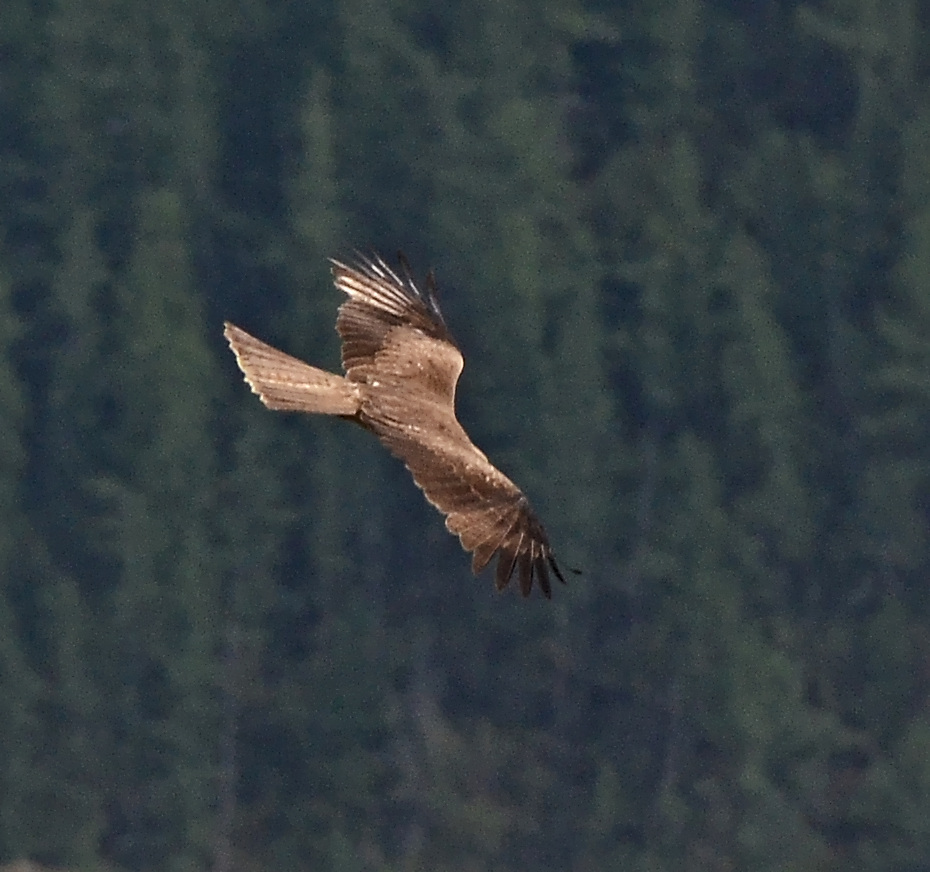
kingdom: Animalia
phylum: Chordata
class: Aves
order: Accipitriformes
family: Accipitridae
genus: Milvus
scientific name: Milvus migrans
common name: Black kite
